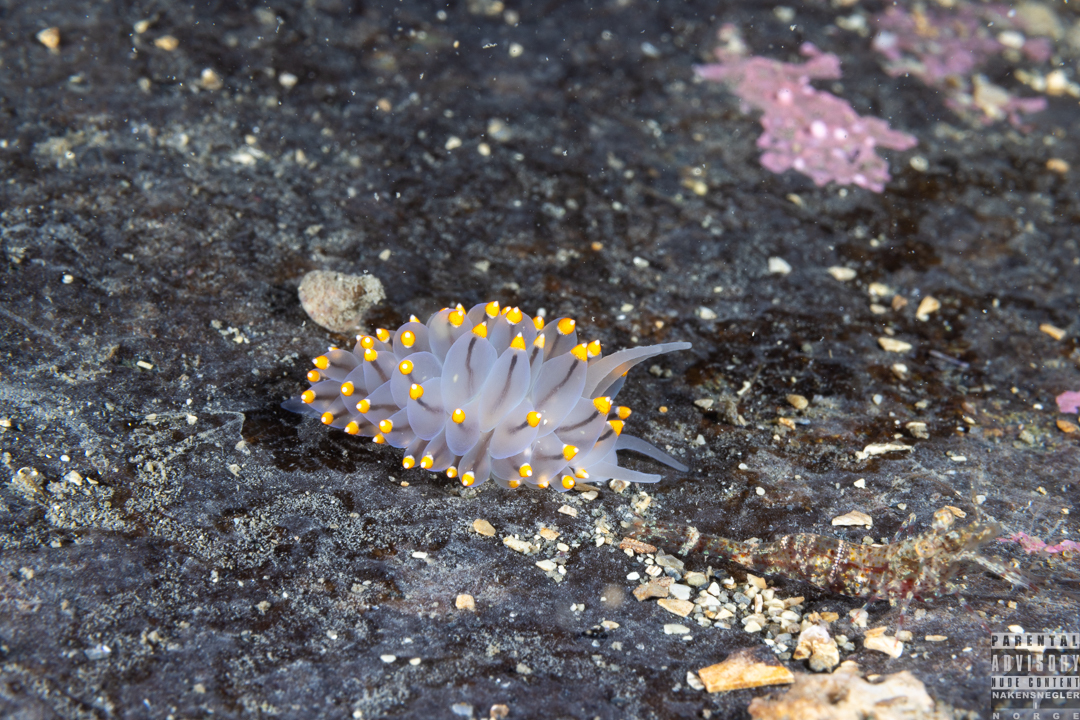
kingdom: Animalia
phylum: Mollusca
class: Gastropoda
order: Nudibranchia
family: Eubranchidae
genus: Eubranchus
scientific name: Eubranchus tricolor
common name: Painted balloon aeolis
